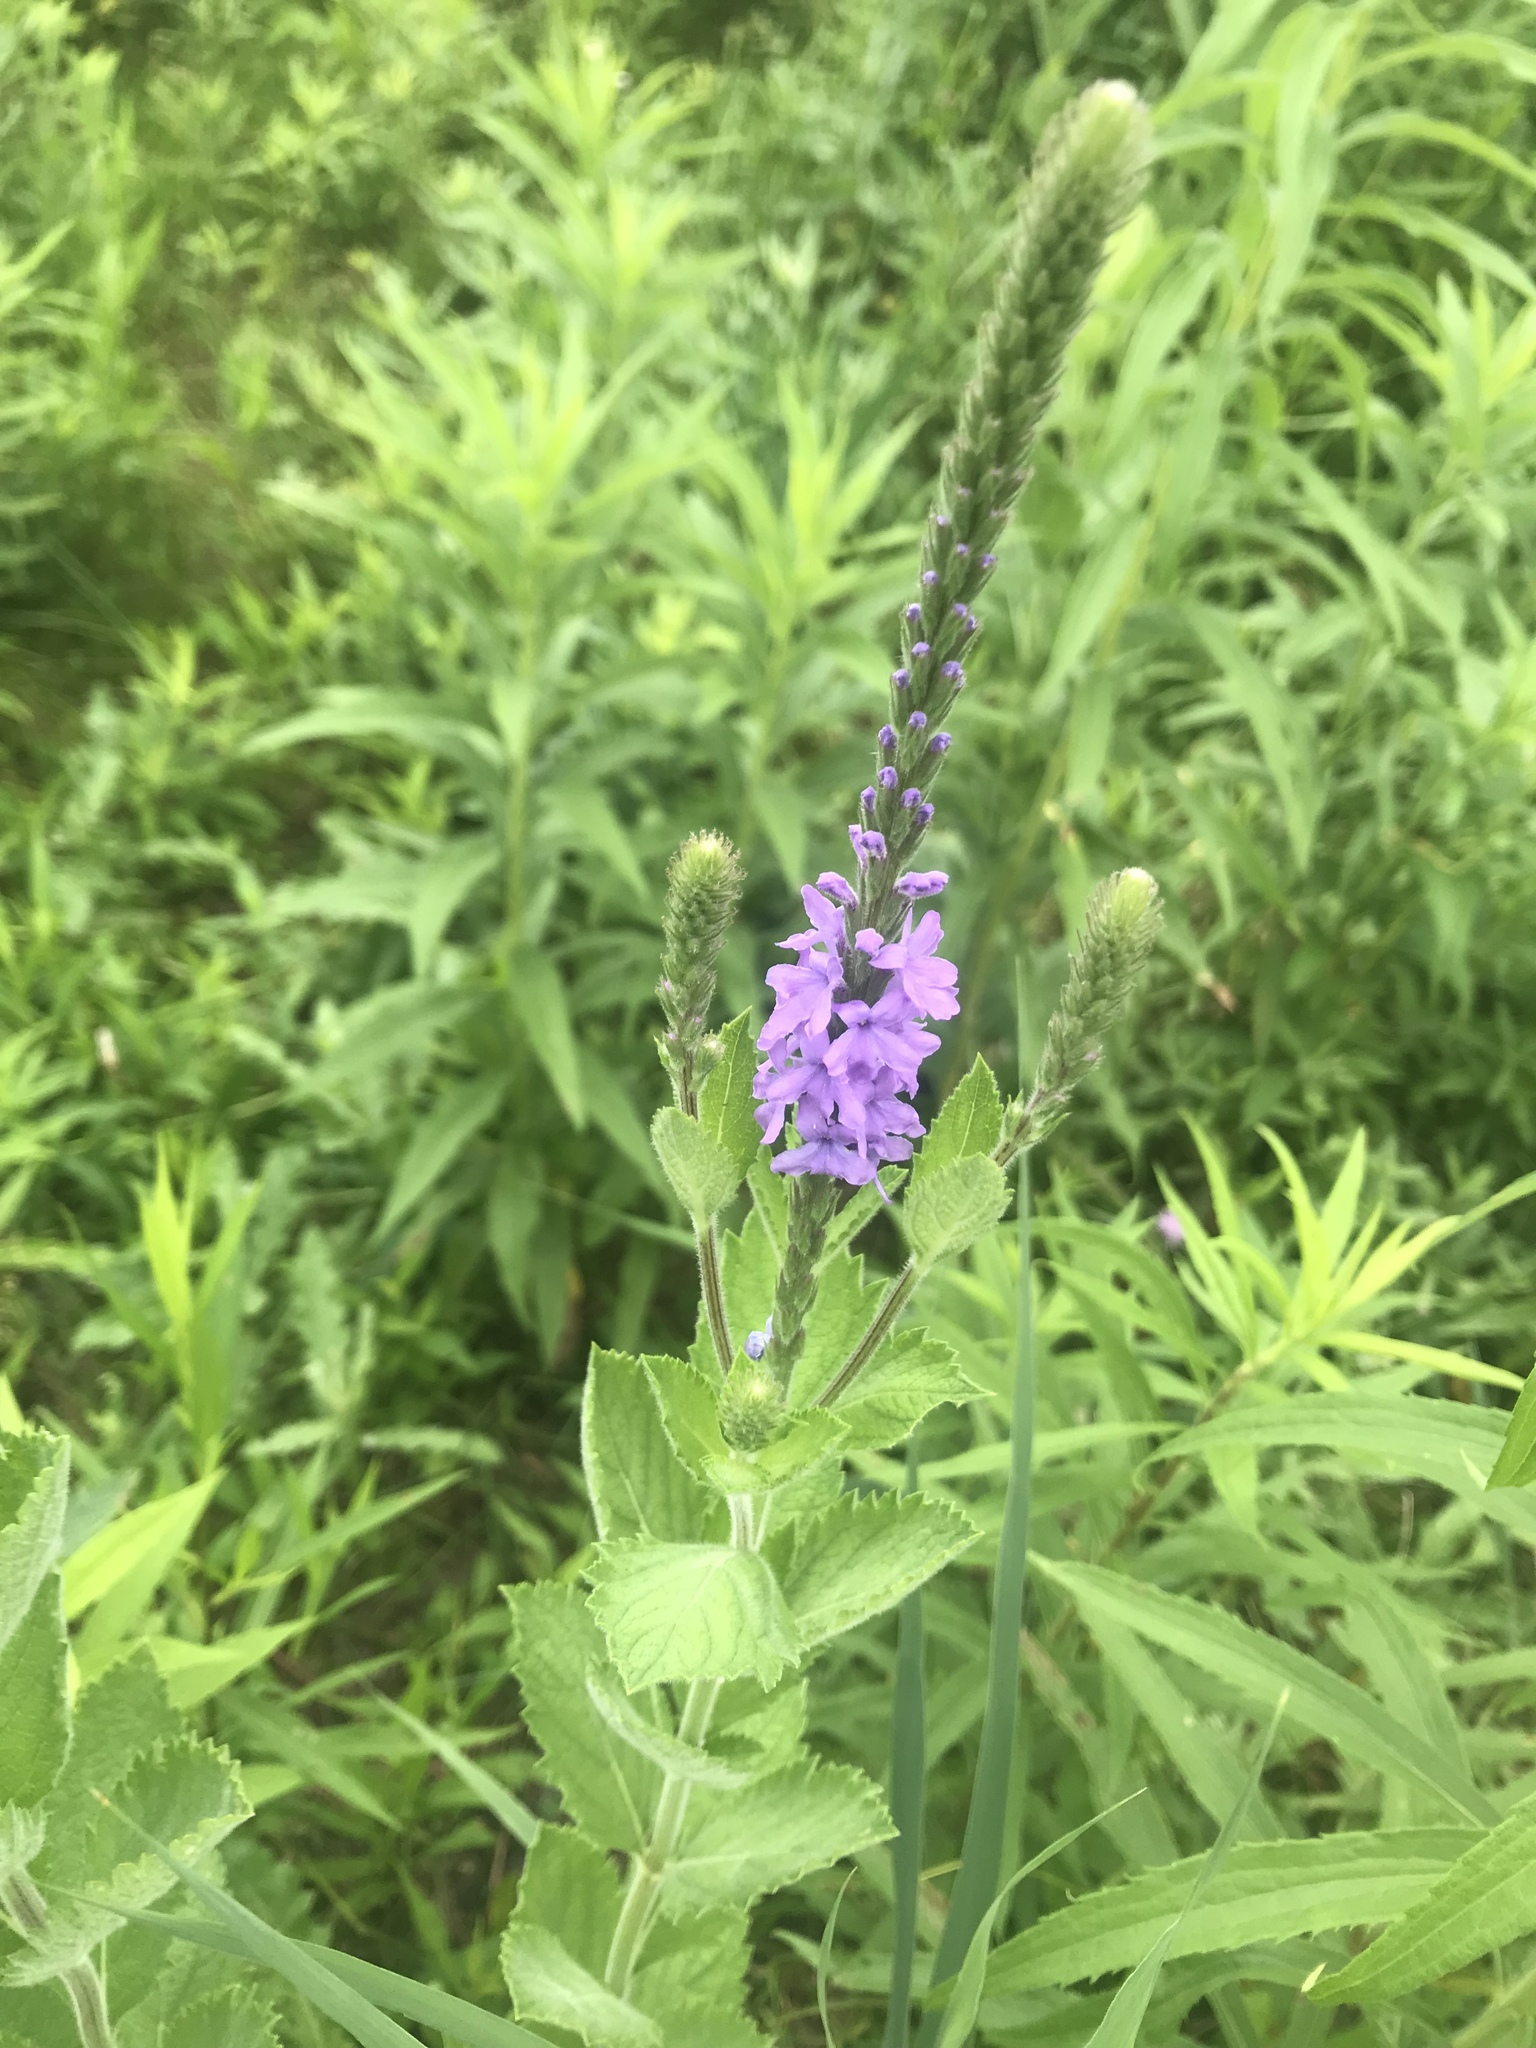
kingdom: Plantae
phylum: Tracheophyta
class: Magnoliopsida
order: Lamiales
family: Verbenaceae
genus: Verbena
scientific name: Verbena stricta
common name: Hoary vervain
